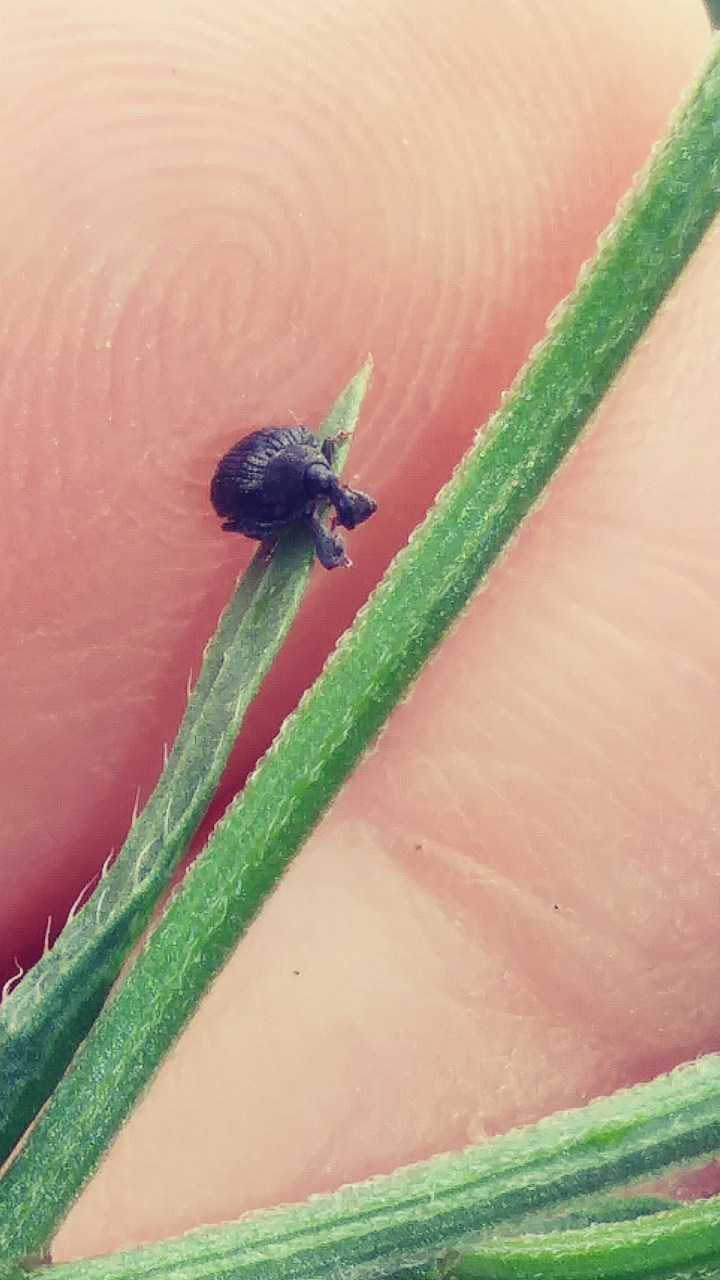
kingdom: Animalia
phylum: Arthropoda
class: Insecta
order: Coleoptera
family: Curculionidae
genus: Odontopus
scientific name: Odontopus calceatus
